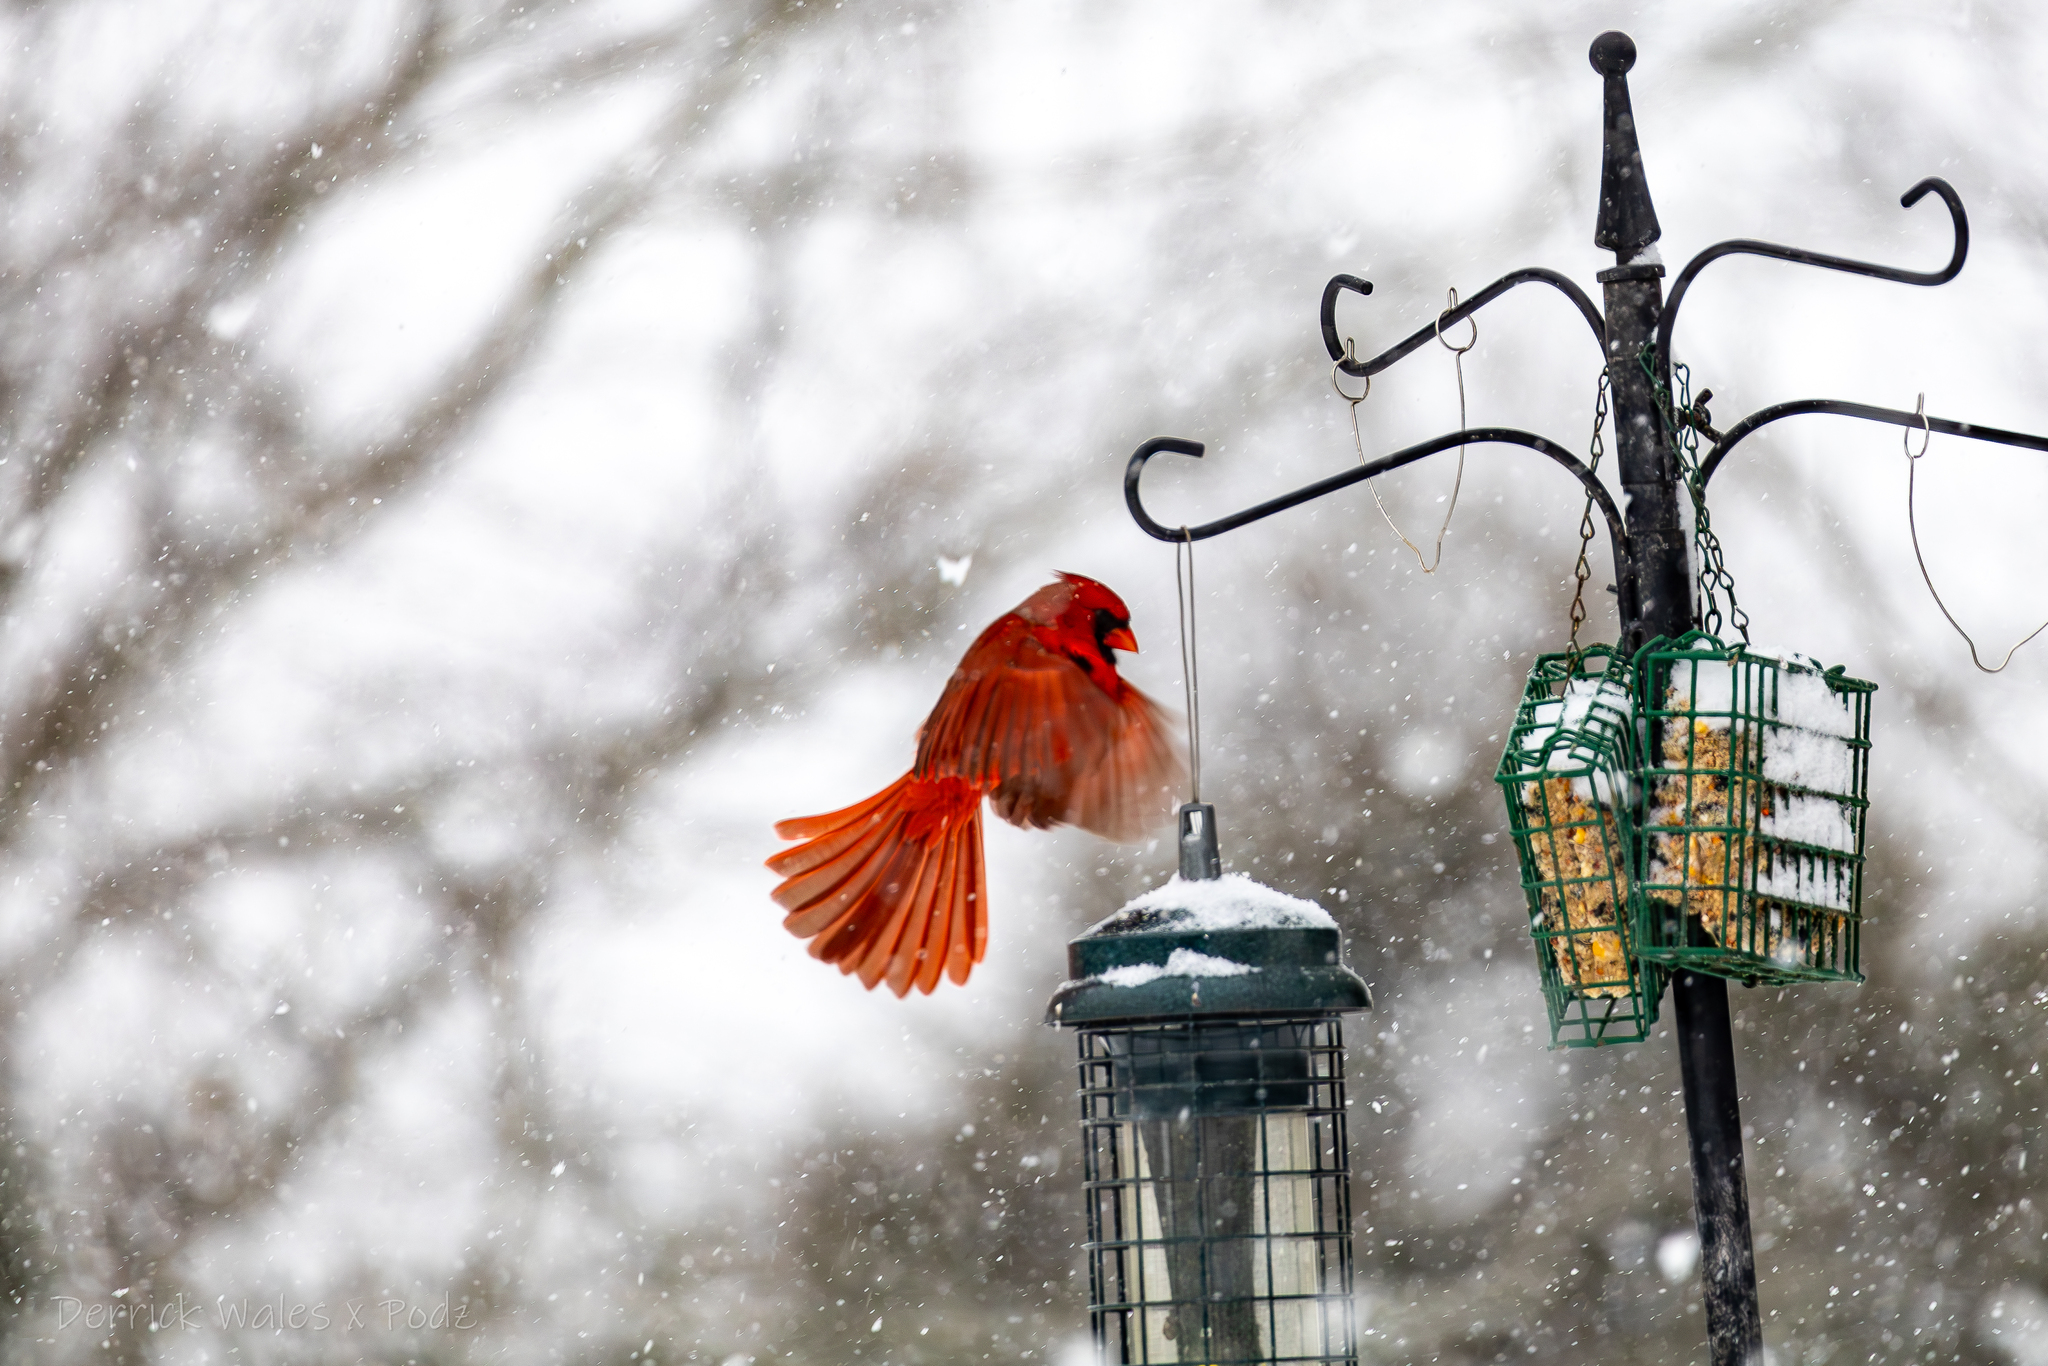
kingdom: Animalia
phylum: Chordata
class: Aves
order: Passeriformes
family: Cardinalidae
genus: Cardinalis
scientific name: Cardinalis cardinalis
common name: Northern cardinal
